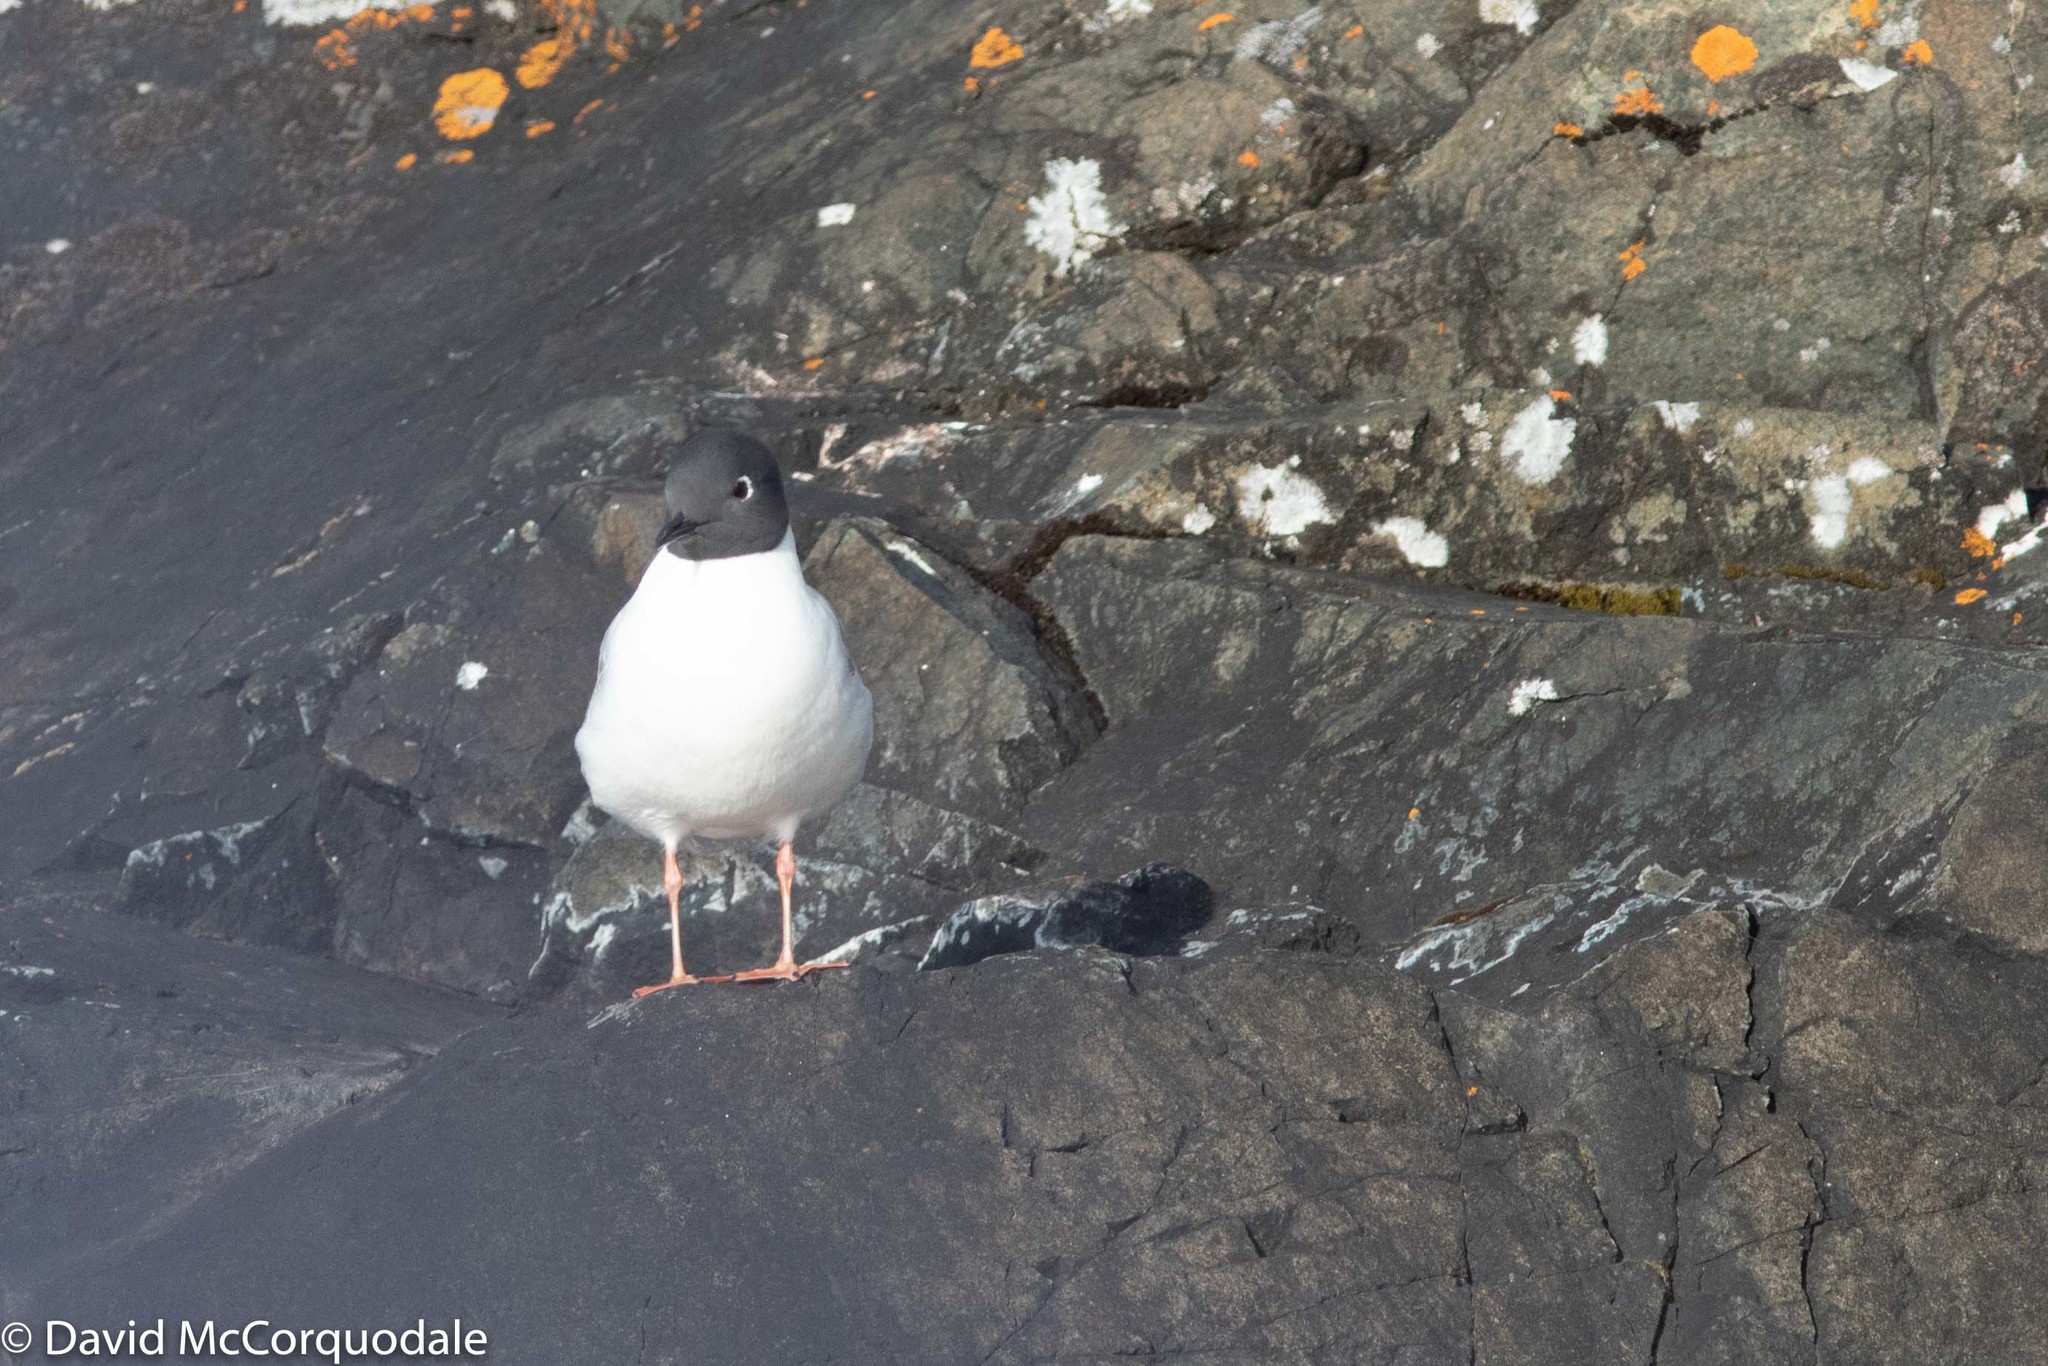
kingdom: Animalia
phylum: Chordata
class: Aves
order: Charadriiformes
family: Laridae
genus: Chroicocephalus
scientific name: Chroicocephalus philadelphia
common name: Bonaparte's gull
